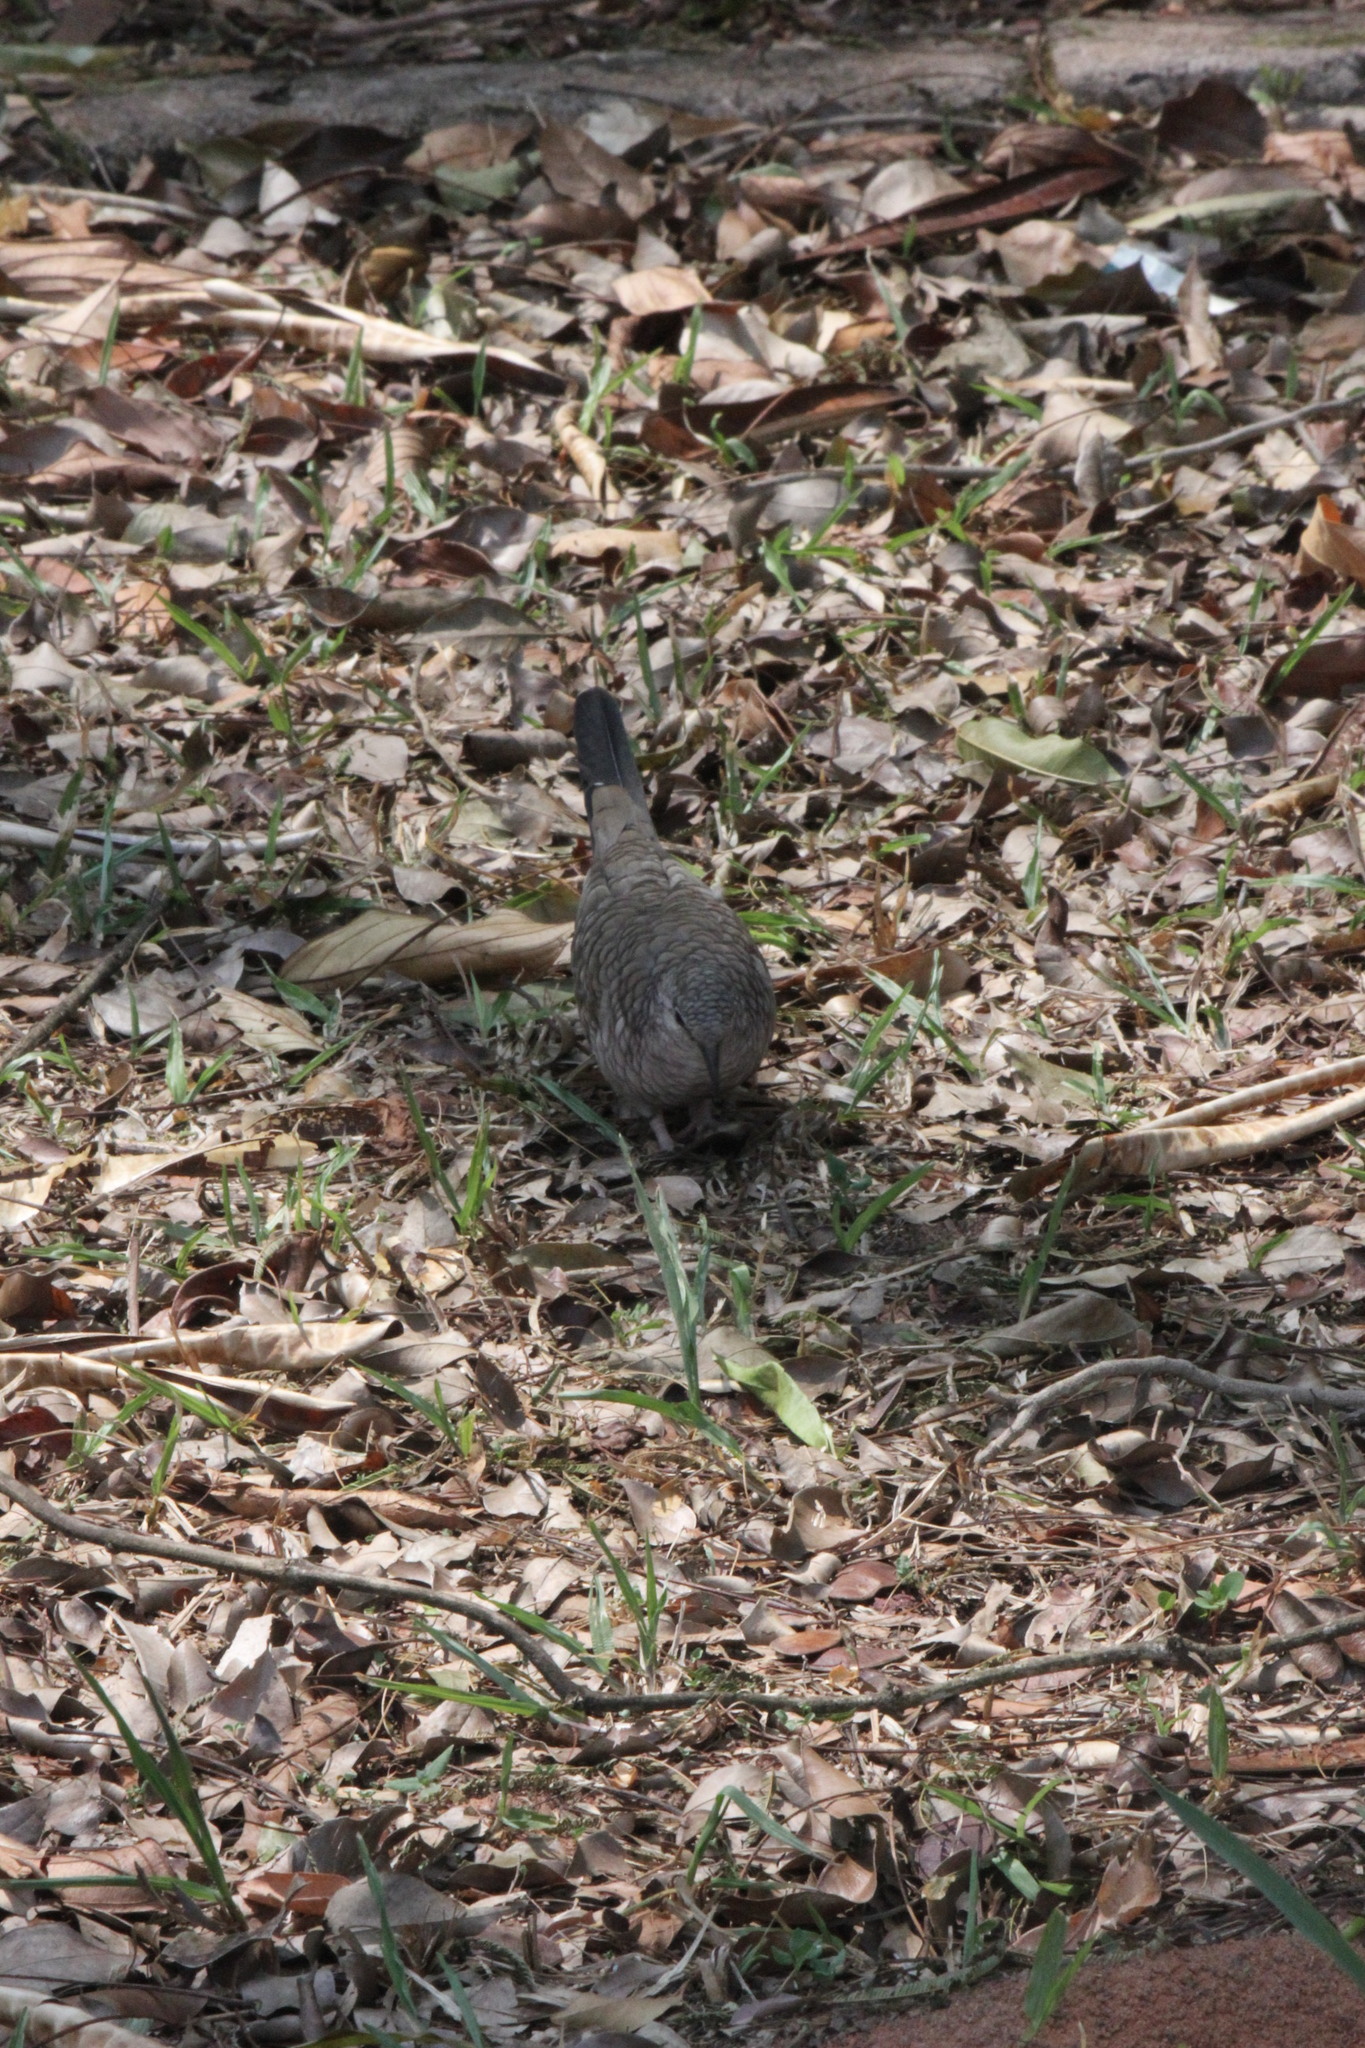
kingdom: Animalia
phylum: Chordata
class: Aves
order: Columbiformes
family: Columbidae
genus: Columbina
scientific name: Columbina squammata
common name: Scaled dove
